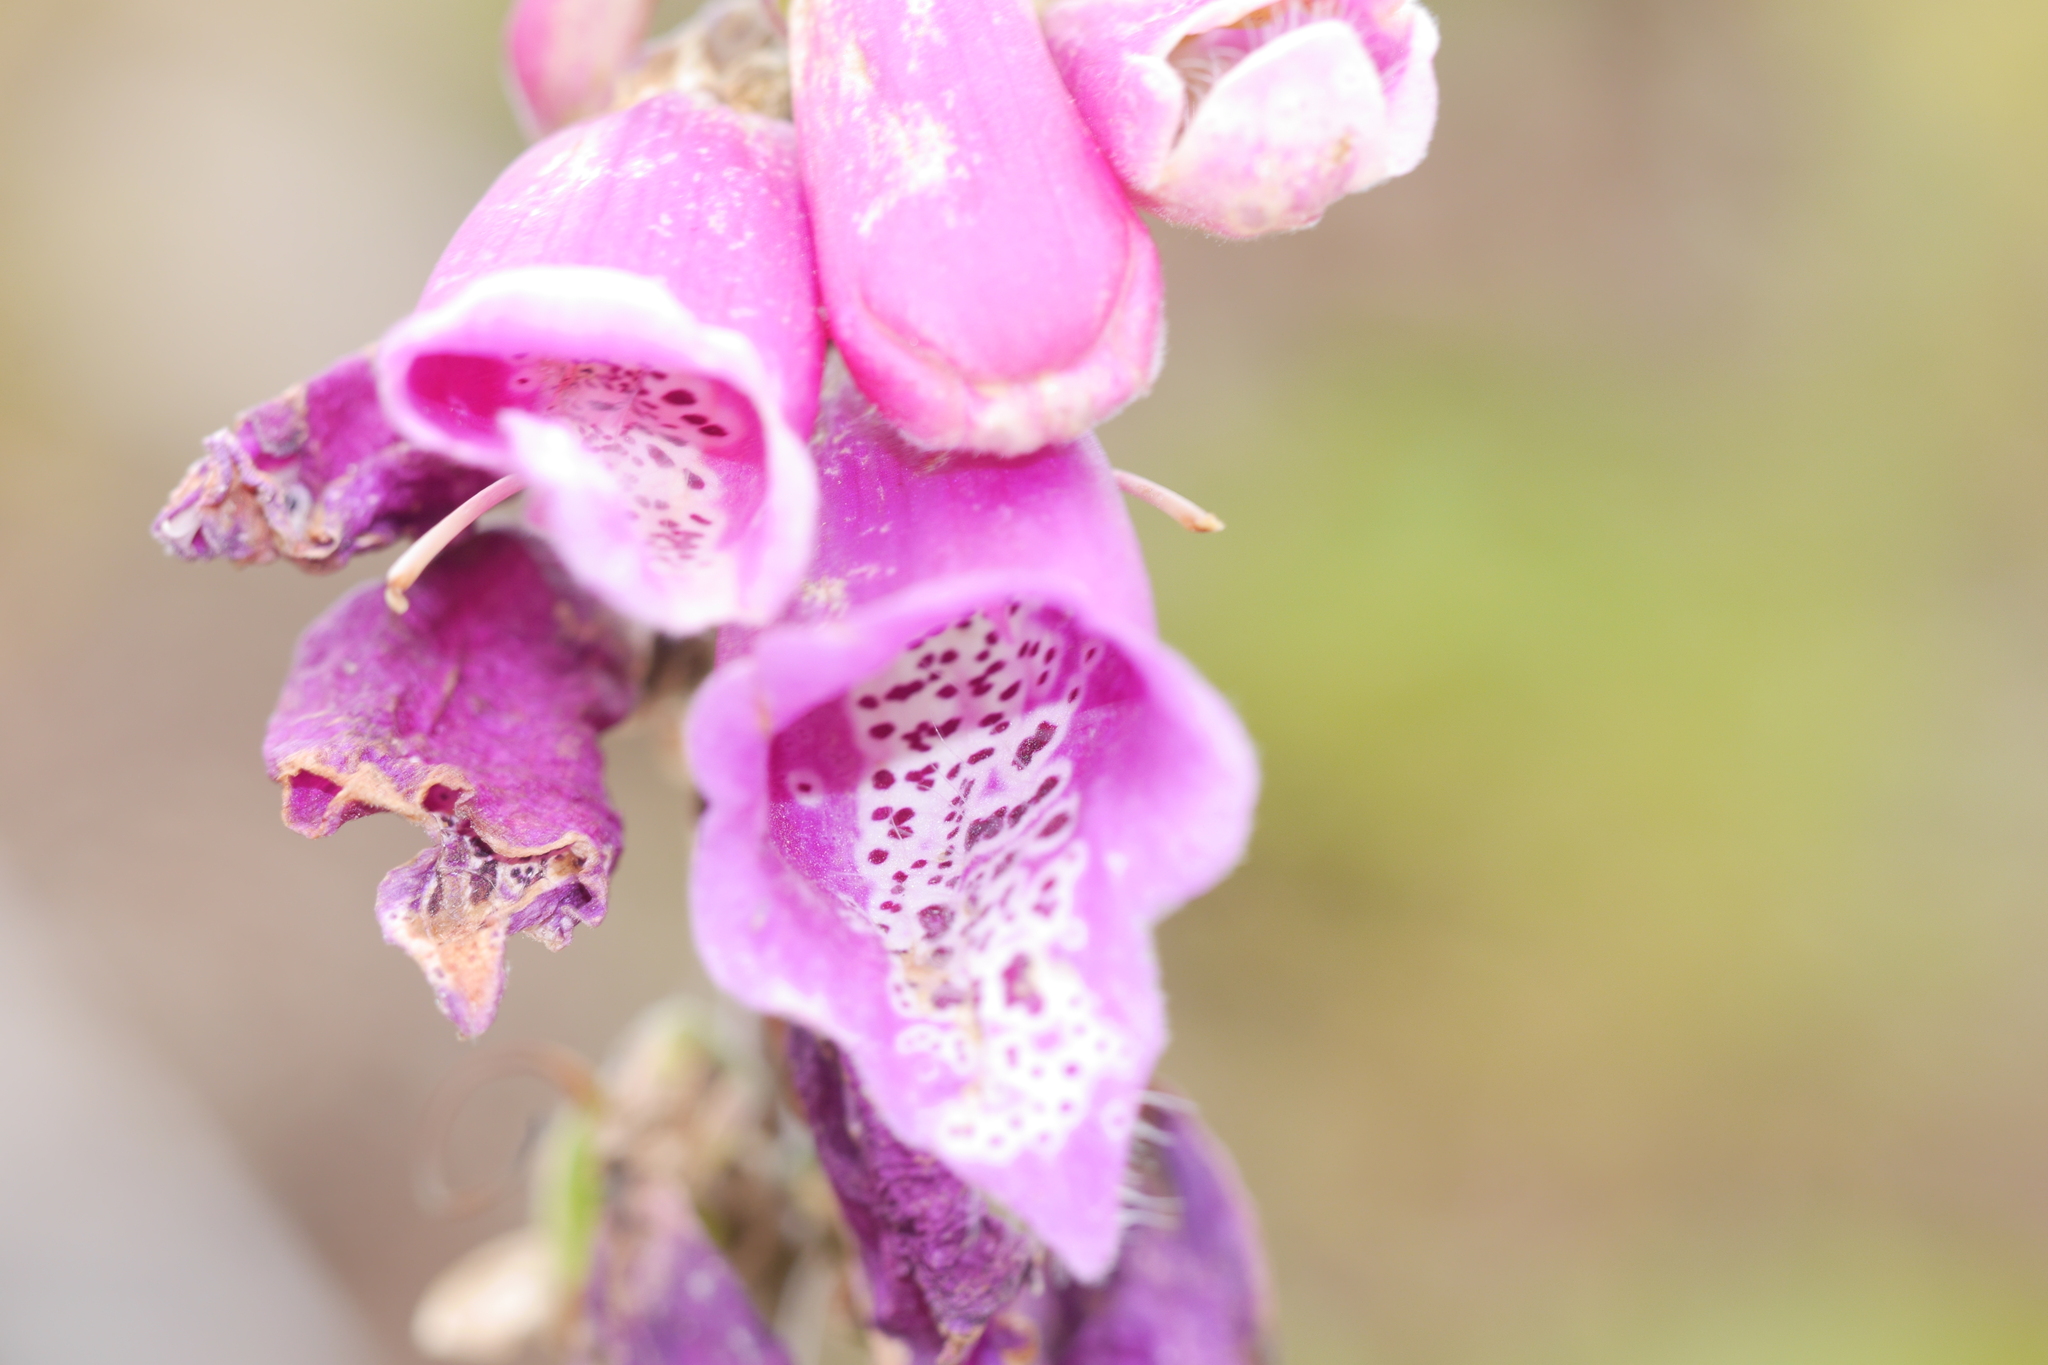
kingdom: Plantae
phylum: Tracheophyta
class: Magnoliopsida
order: Lamiales
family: Plantaginaceae
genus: Digitalis
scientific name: Digitalis purpurea
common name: Foxglove
